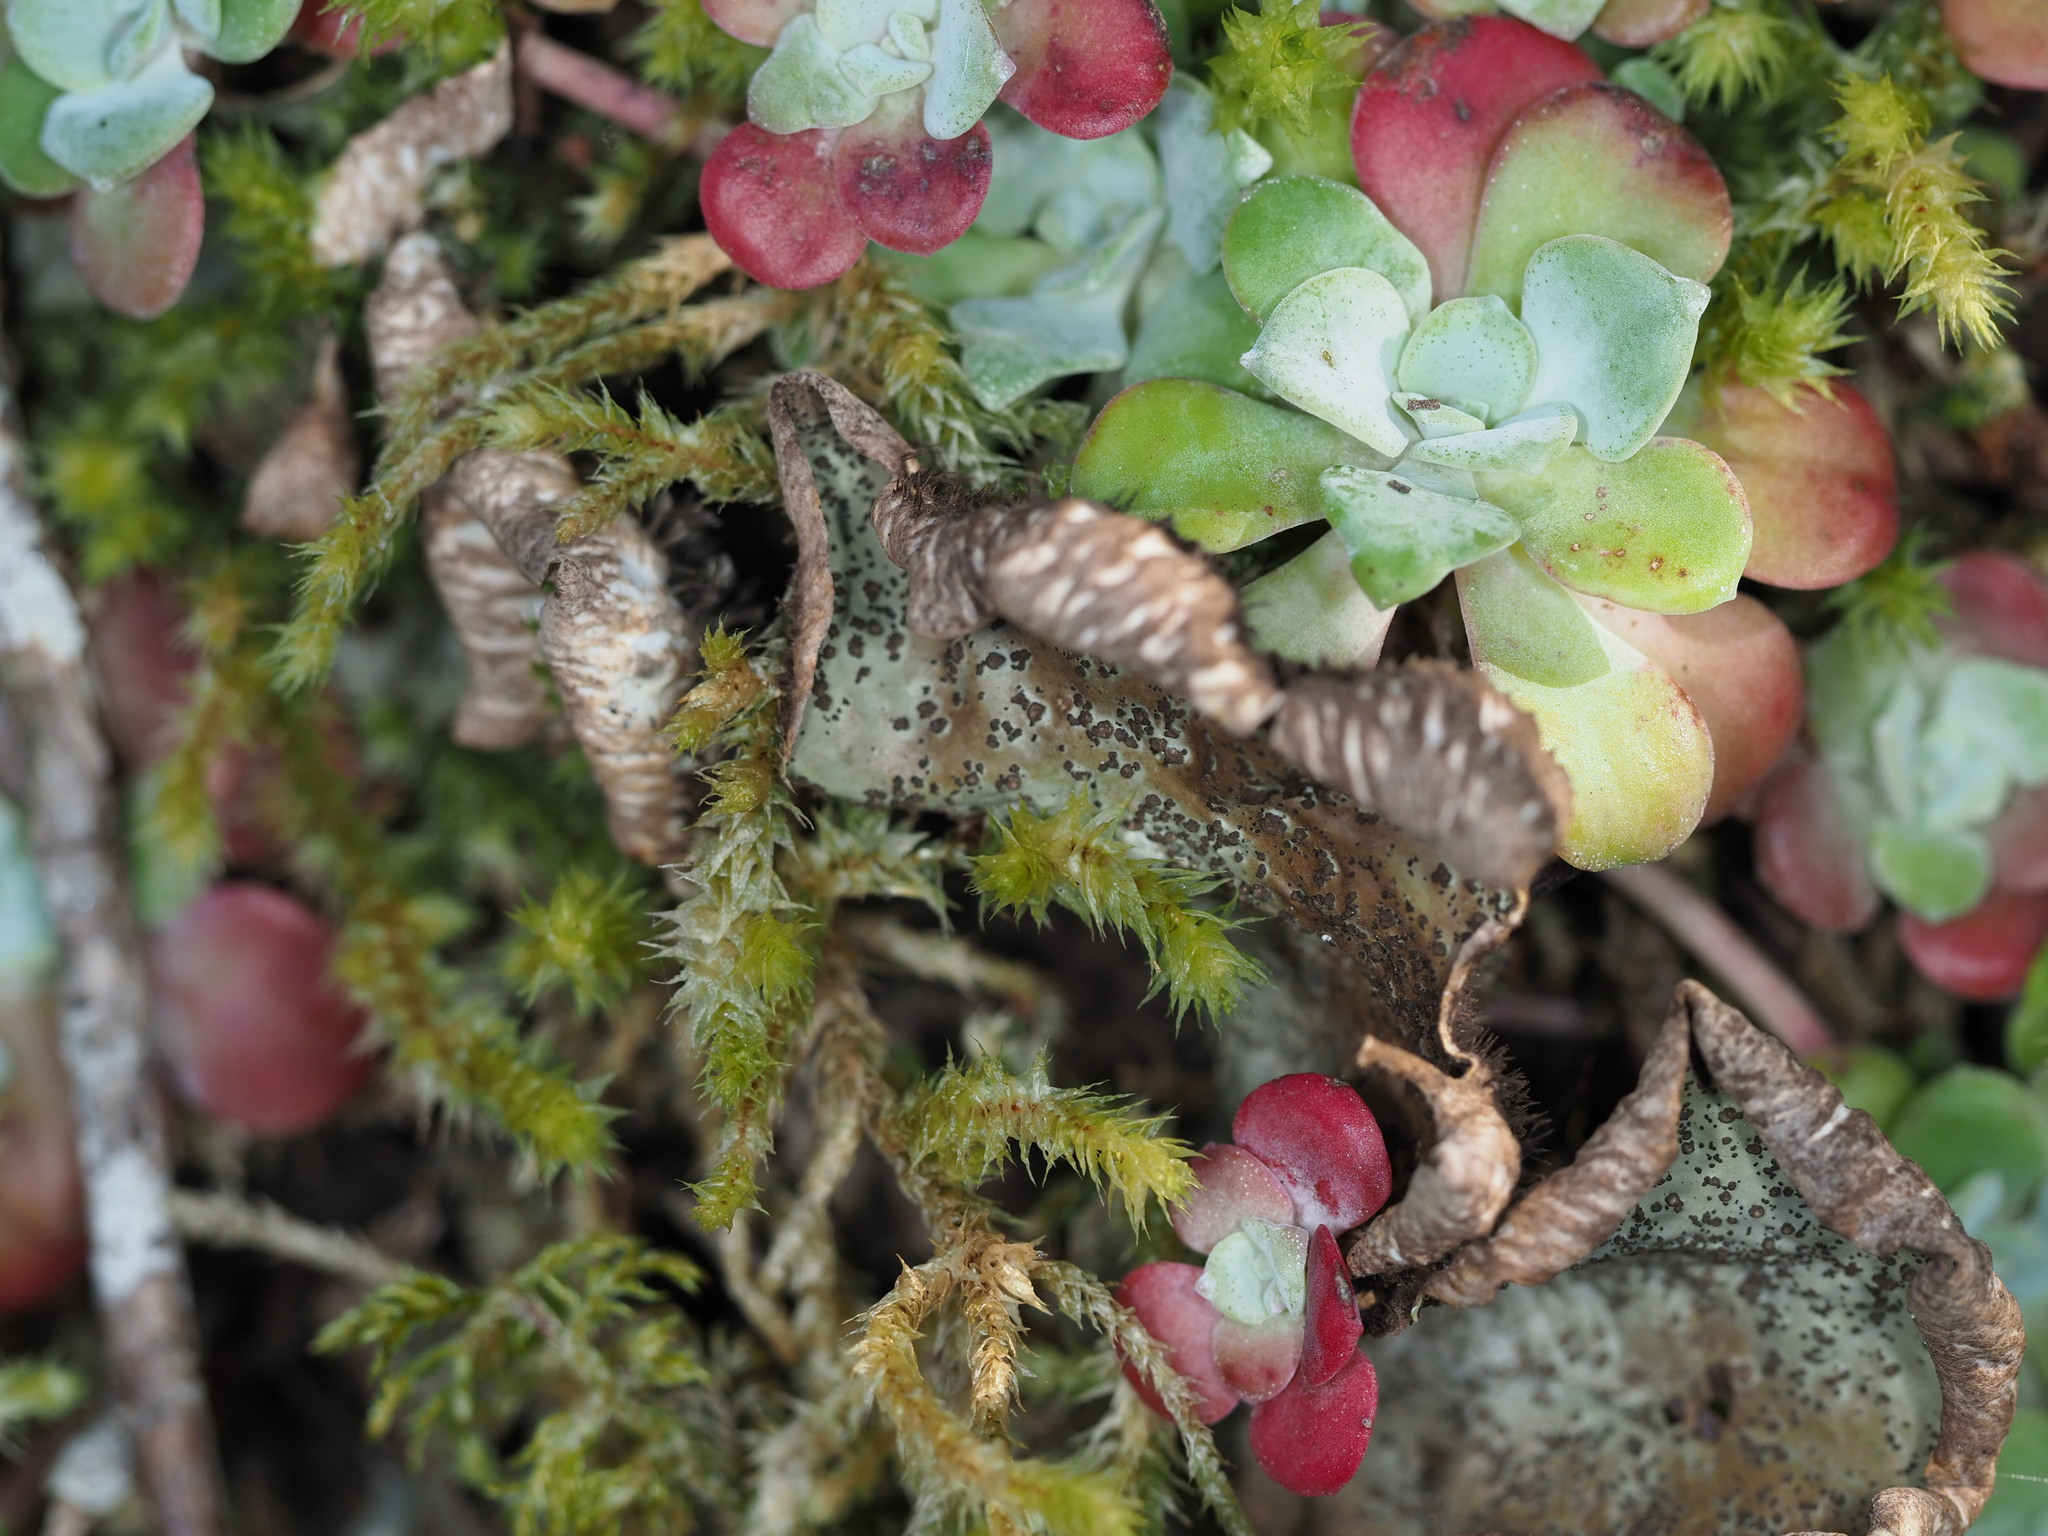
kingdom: Plantae
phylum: Tracheophyta
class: Magnoliopsida
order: Saxifragales
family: Crassulaceae
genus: Sedum
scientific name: Sedum spathulifolium
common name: Colorado stonecrop
